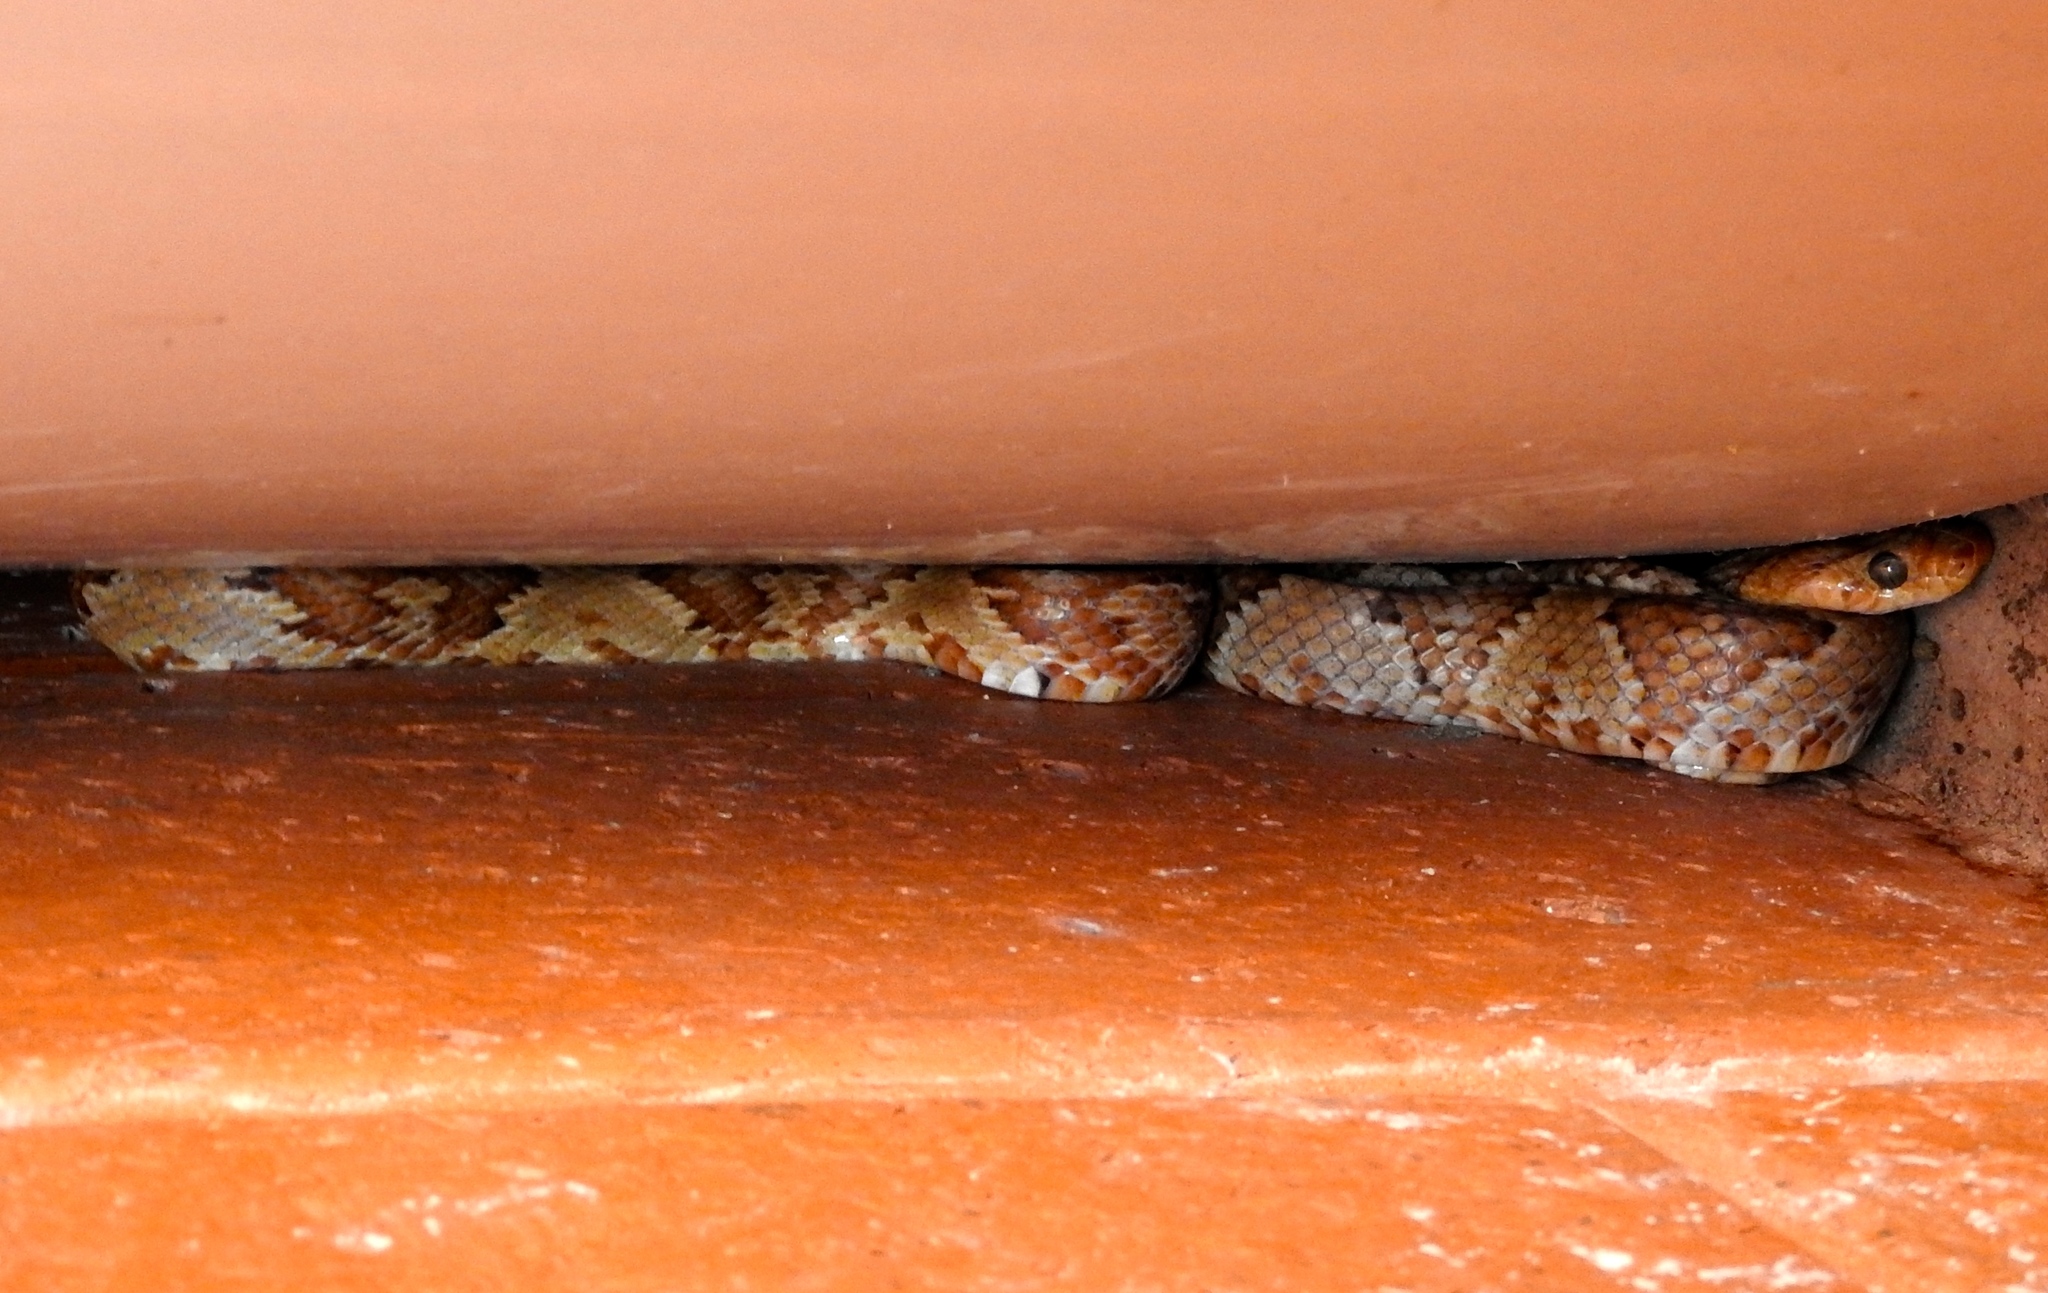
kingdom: Animalia
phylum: Chordata
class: Squamata
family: Colubridae
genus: Trimorphodon
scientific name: Trimorphodon paucimaculatus
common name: Sinaloan lyresnake
